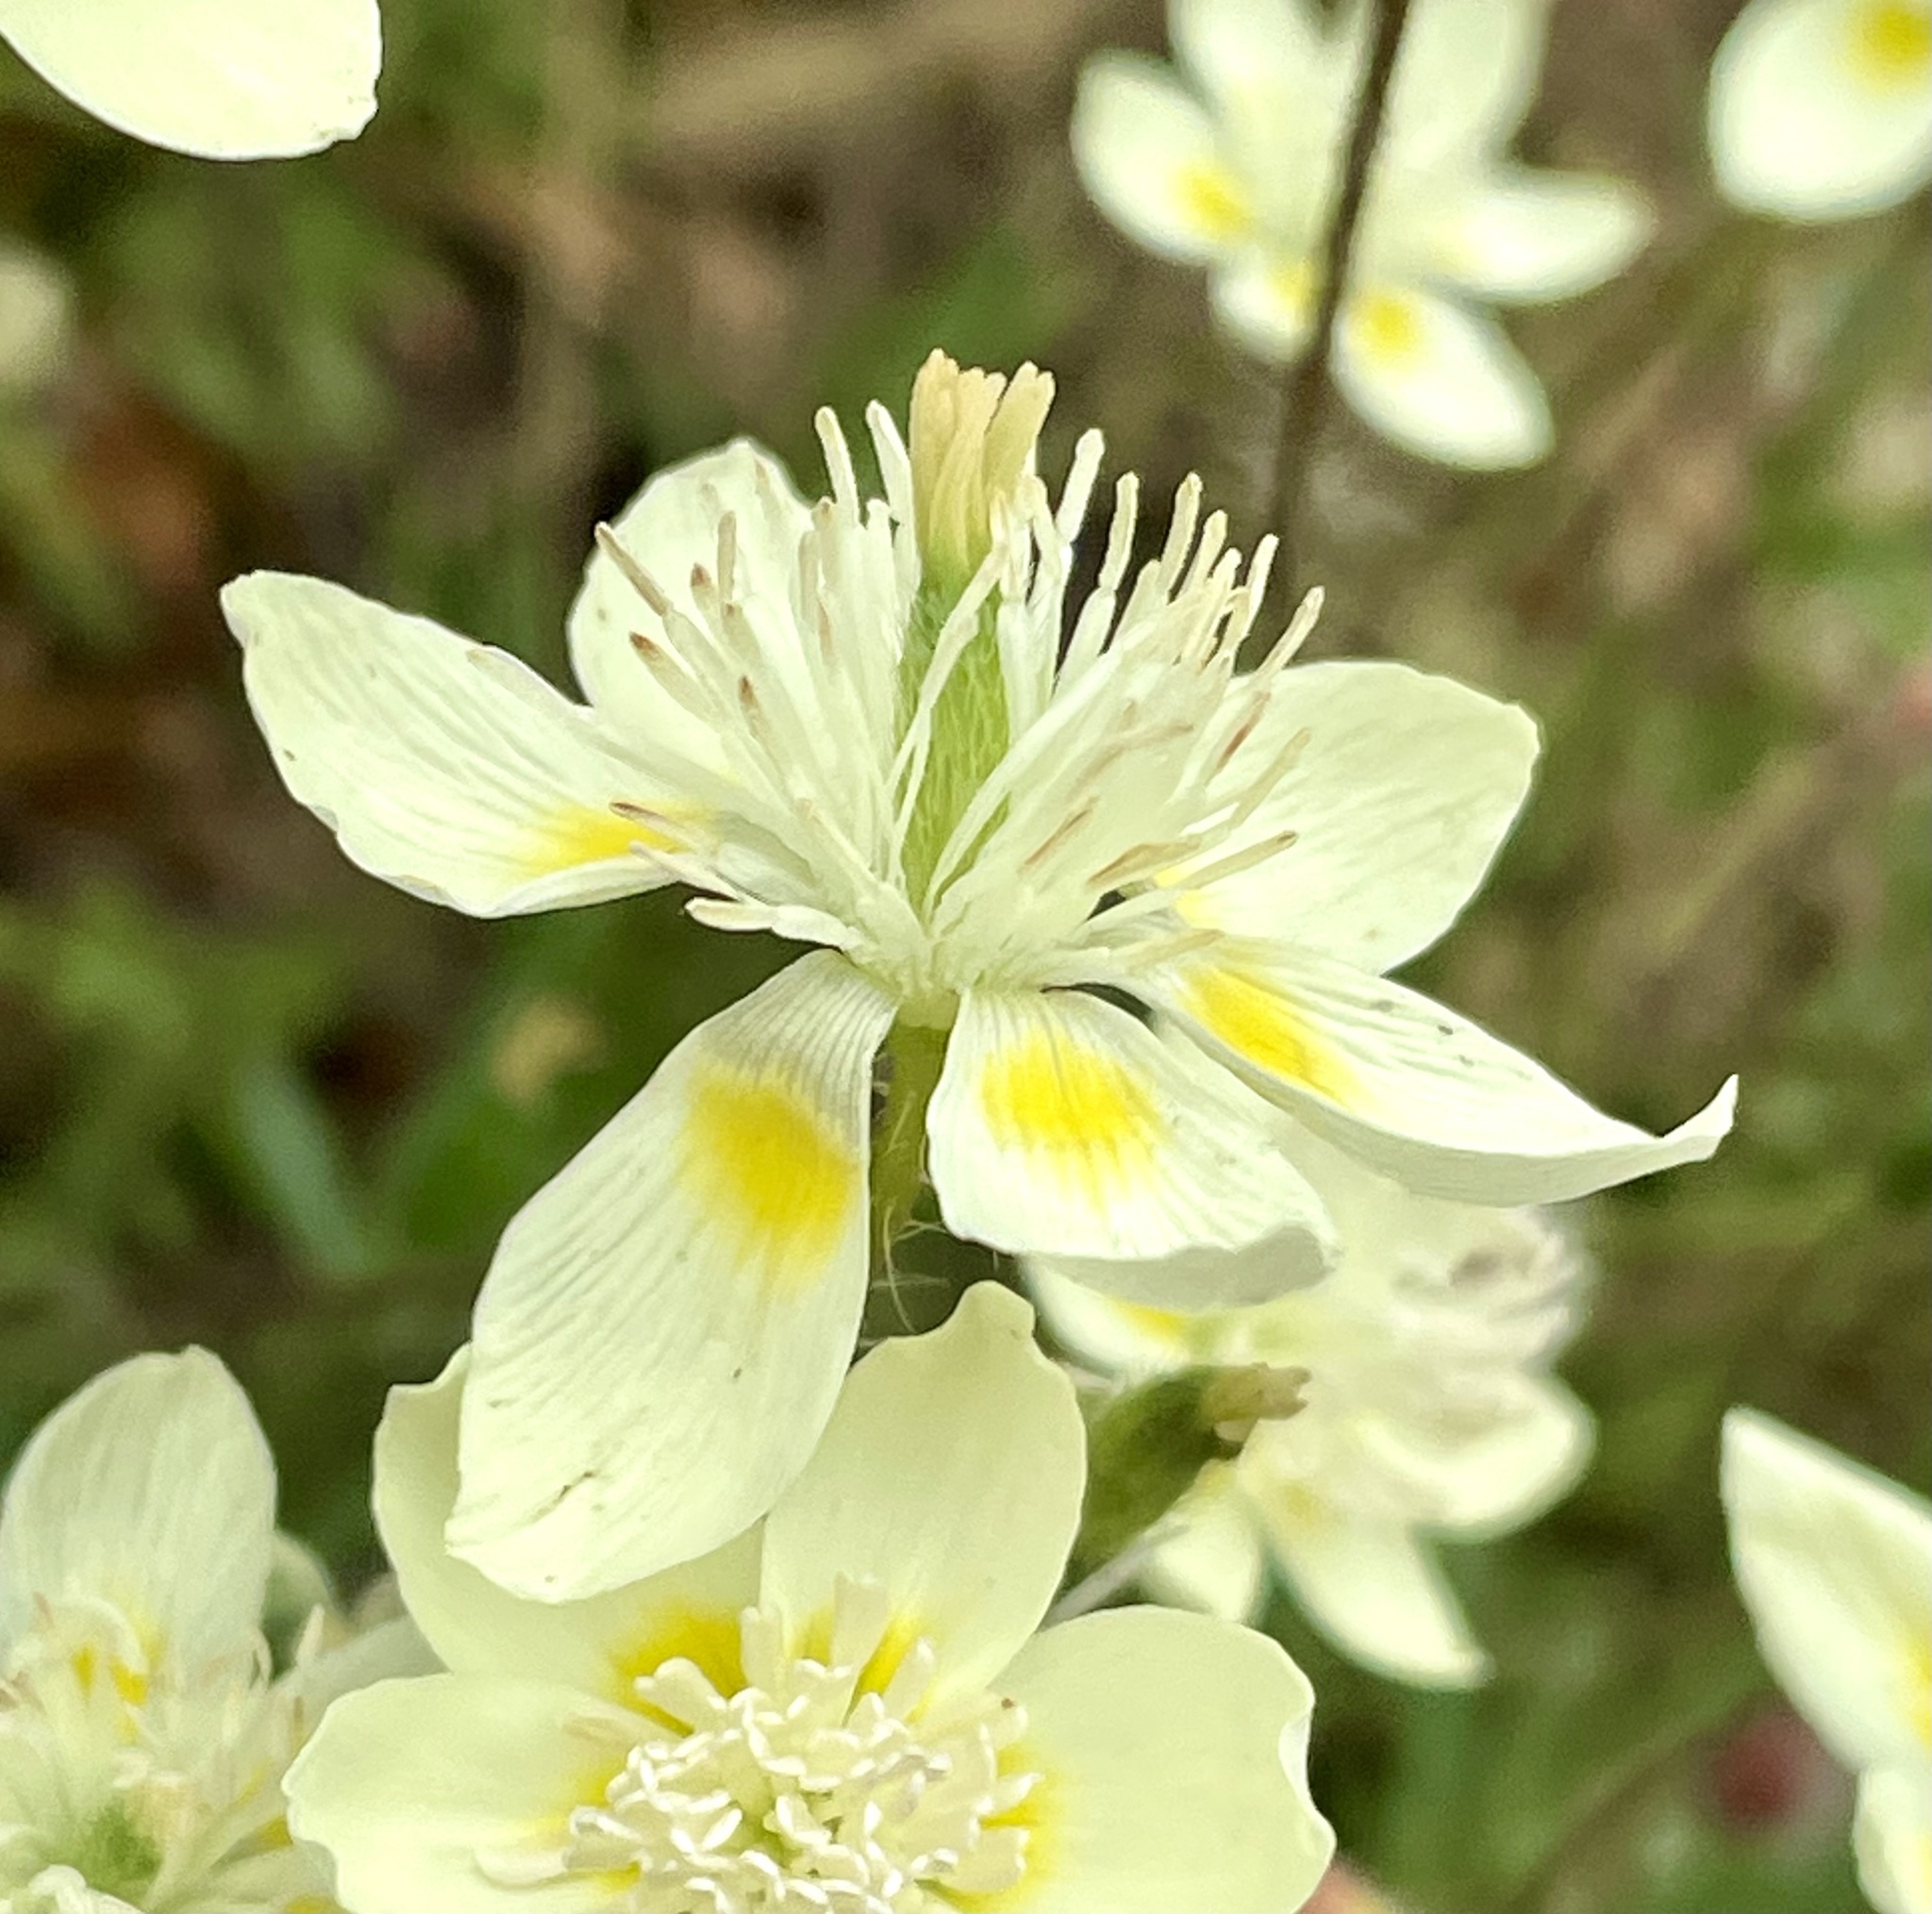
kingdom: Plantae
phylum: Tracheophyta
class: Magnoliopsida
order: Ranunculales
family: Papaveraceae
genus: Platystemon
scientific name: Platystemon californicus
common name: Cream-cups
